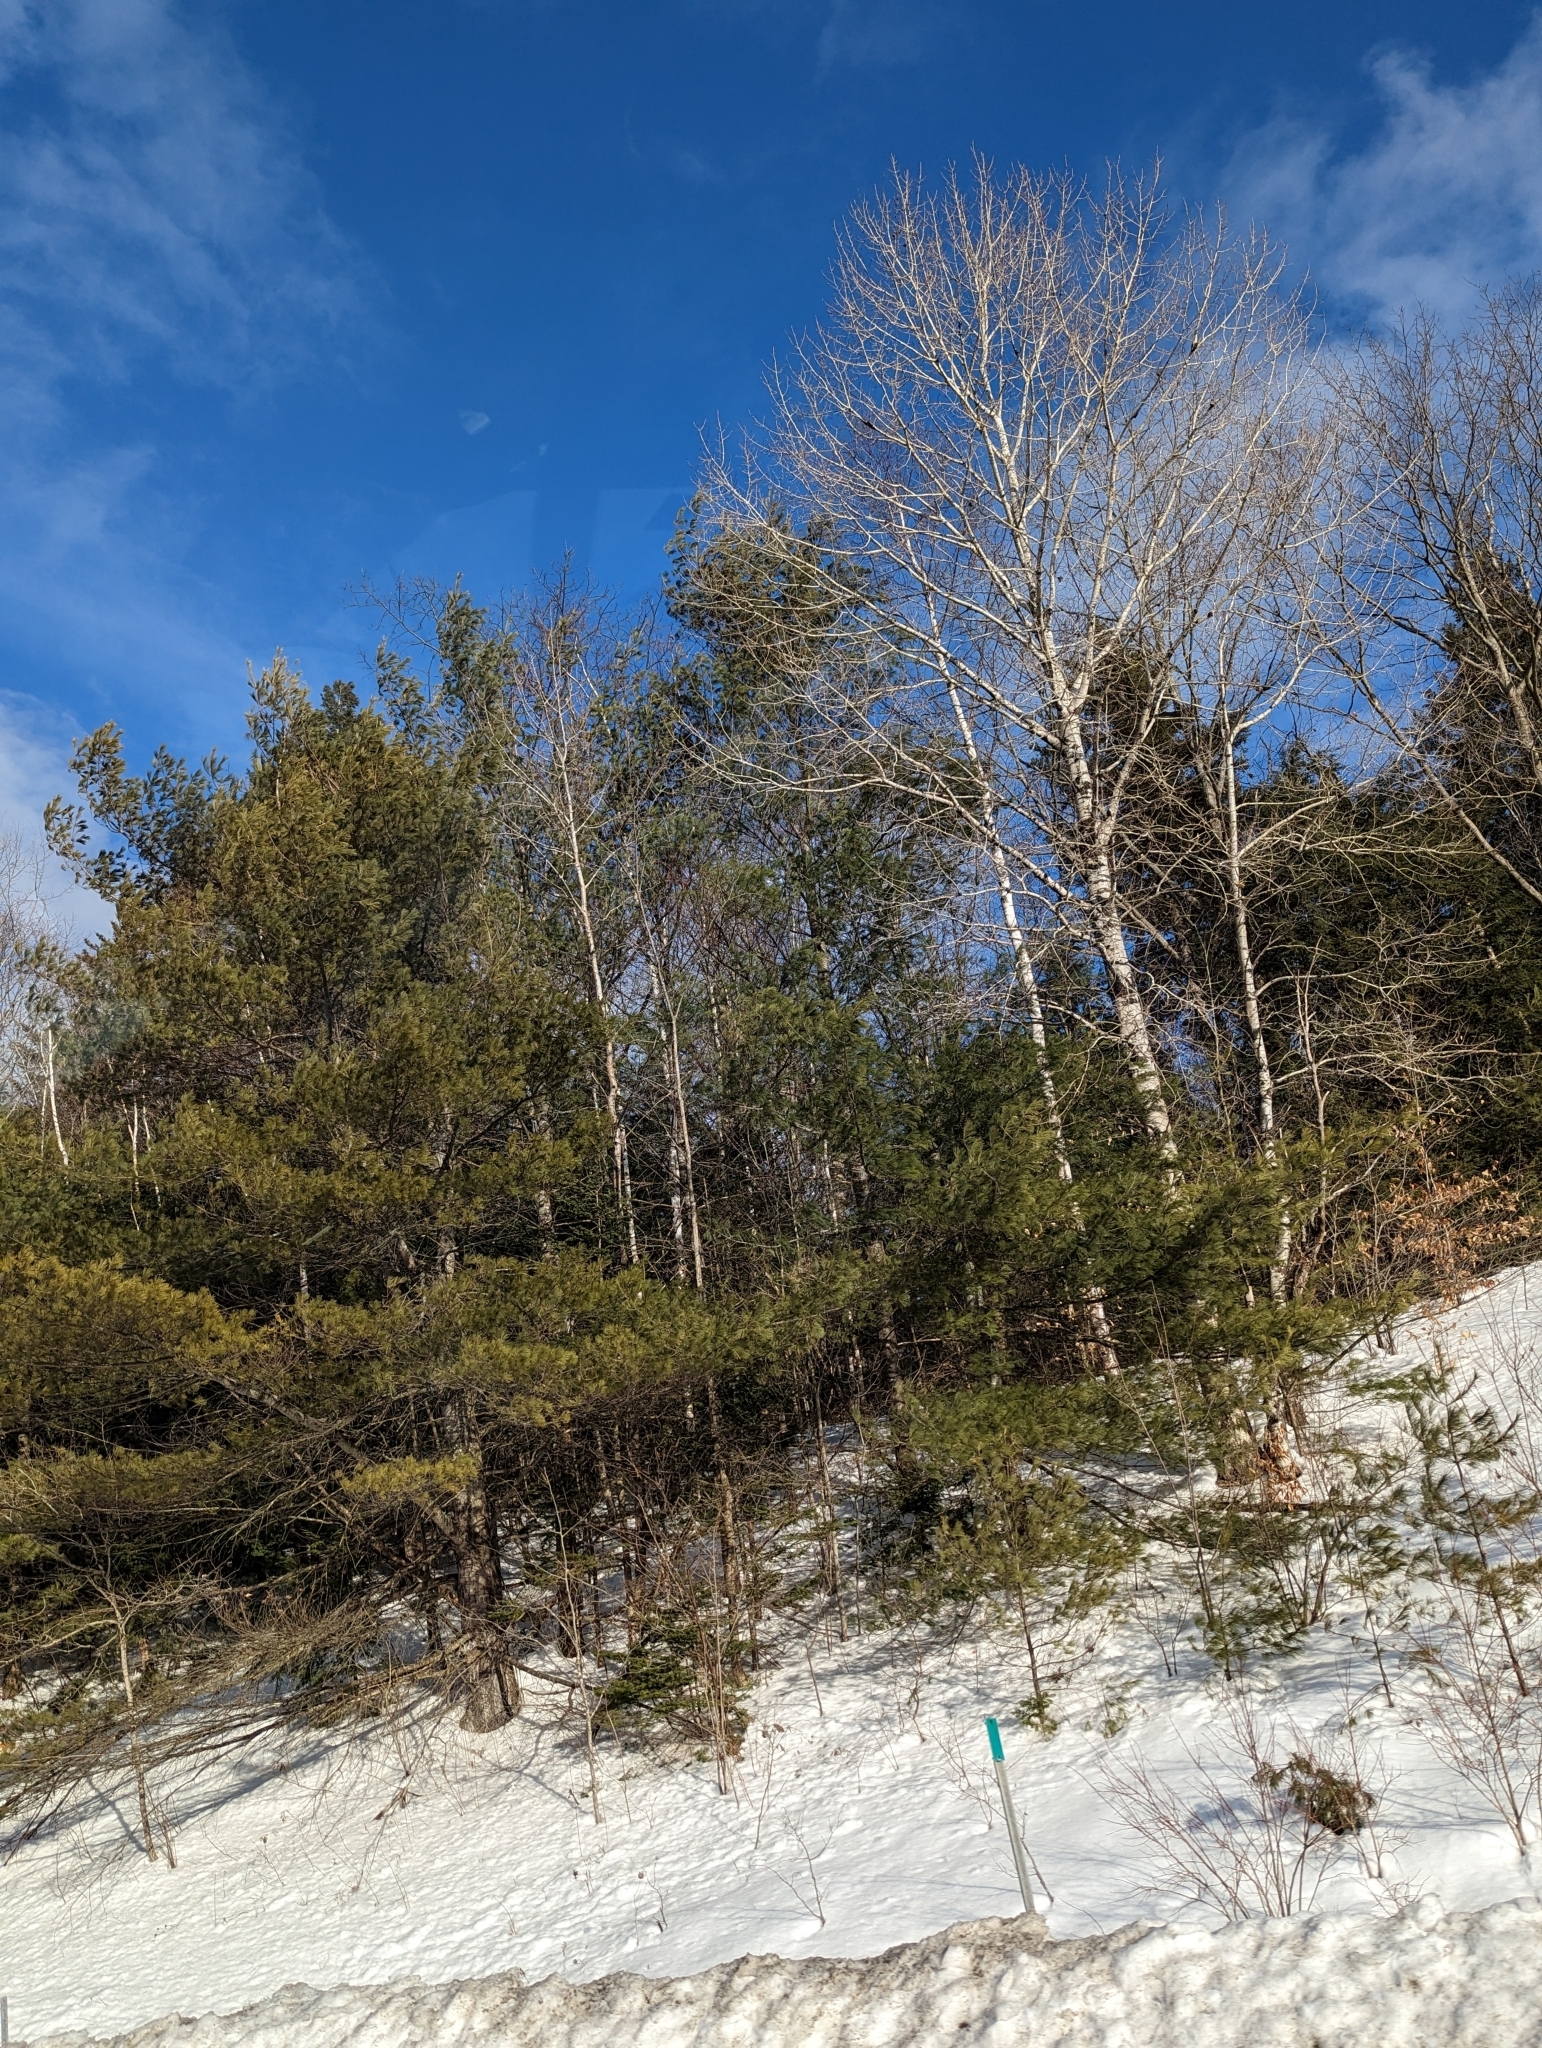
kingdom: Plantae
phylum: Tracheophyta
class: Pinopsida
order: Pinales
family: Pinaceae
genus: Pinus
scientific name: Pinus strobus
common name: Weymouth pine
